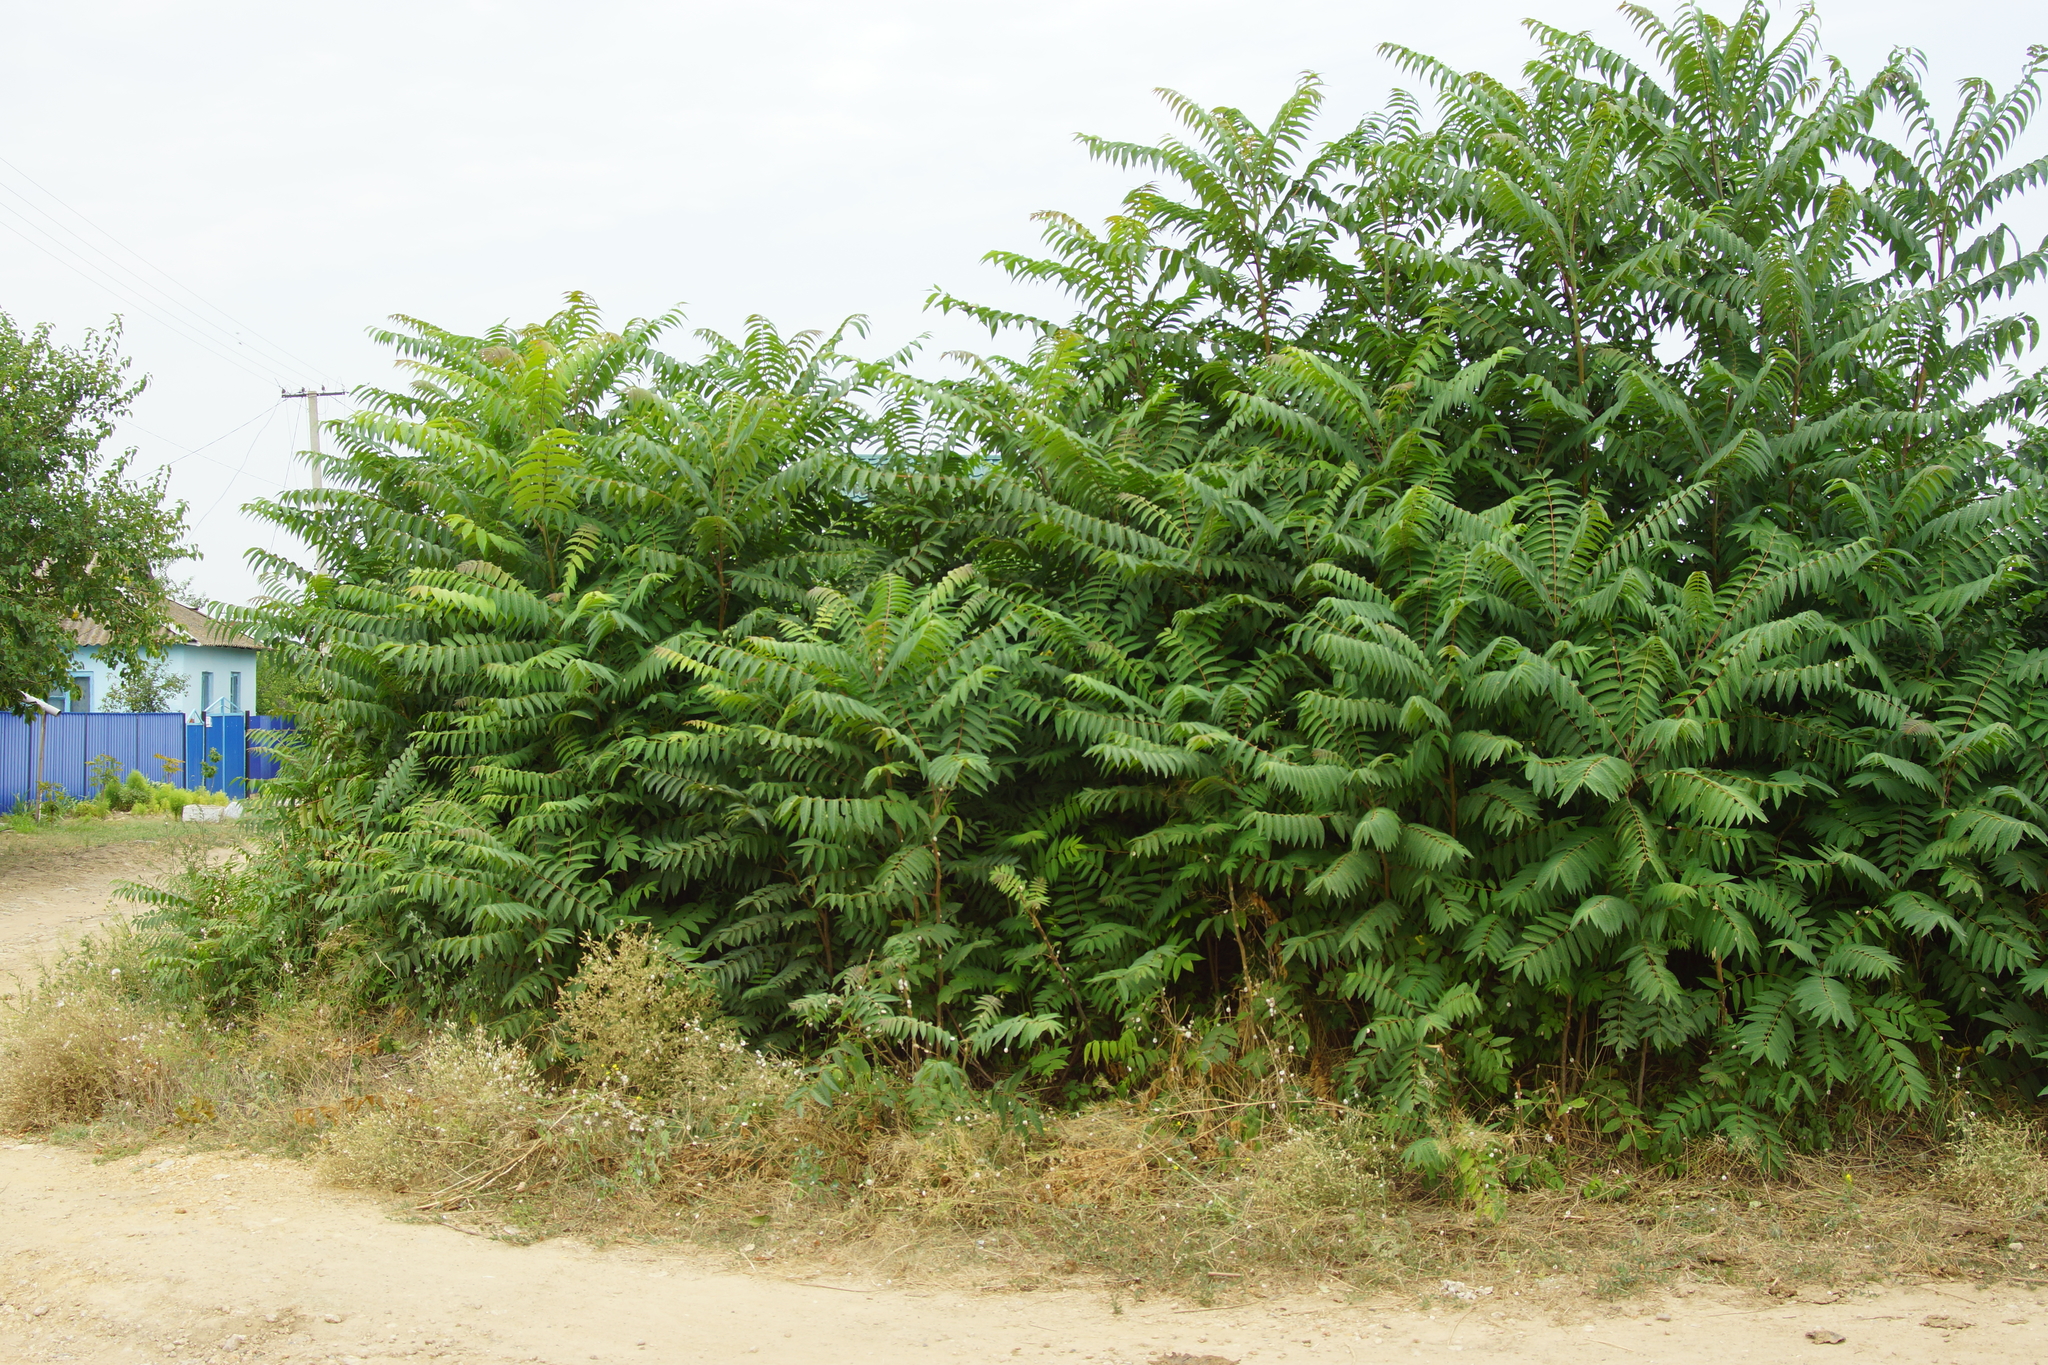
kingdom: Plantae
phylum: Tracheophyta
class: Magnoliopsida
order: Sapindales
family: Simaroubaceae
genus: Ailanthus
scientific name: Ailanthus altissima
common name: Tree-of-heaven
